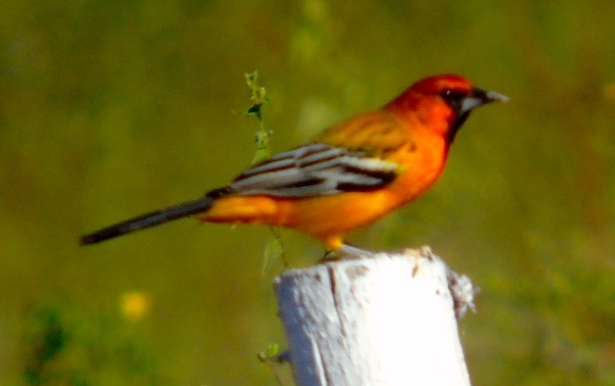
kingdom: Animalia
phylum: Chordata
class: Aves
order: Passeriformes
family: Icteridae
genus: Icterus
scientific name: Icterus pustulatus
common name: Streak-backed oriole
